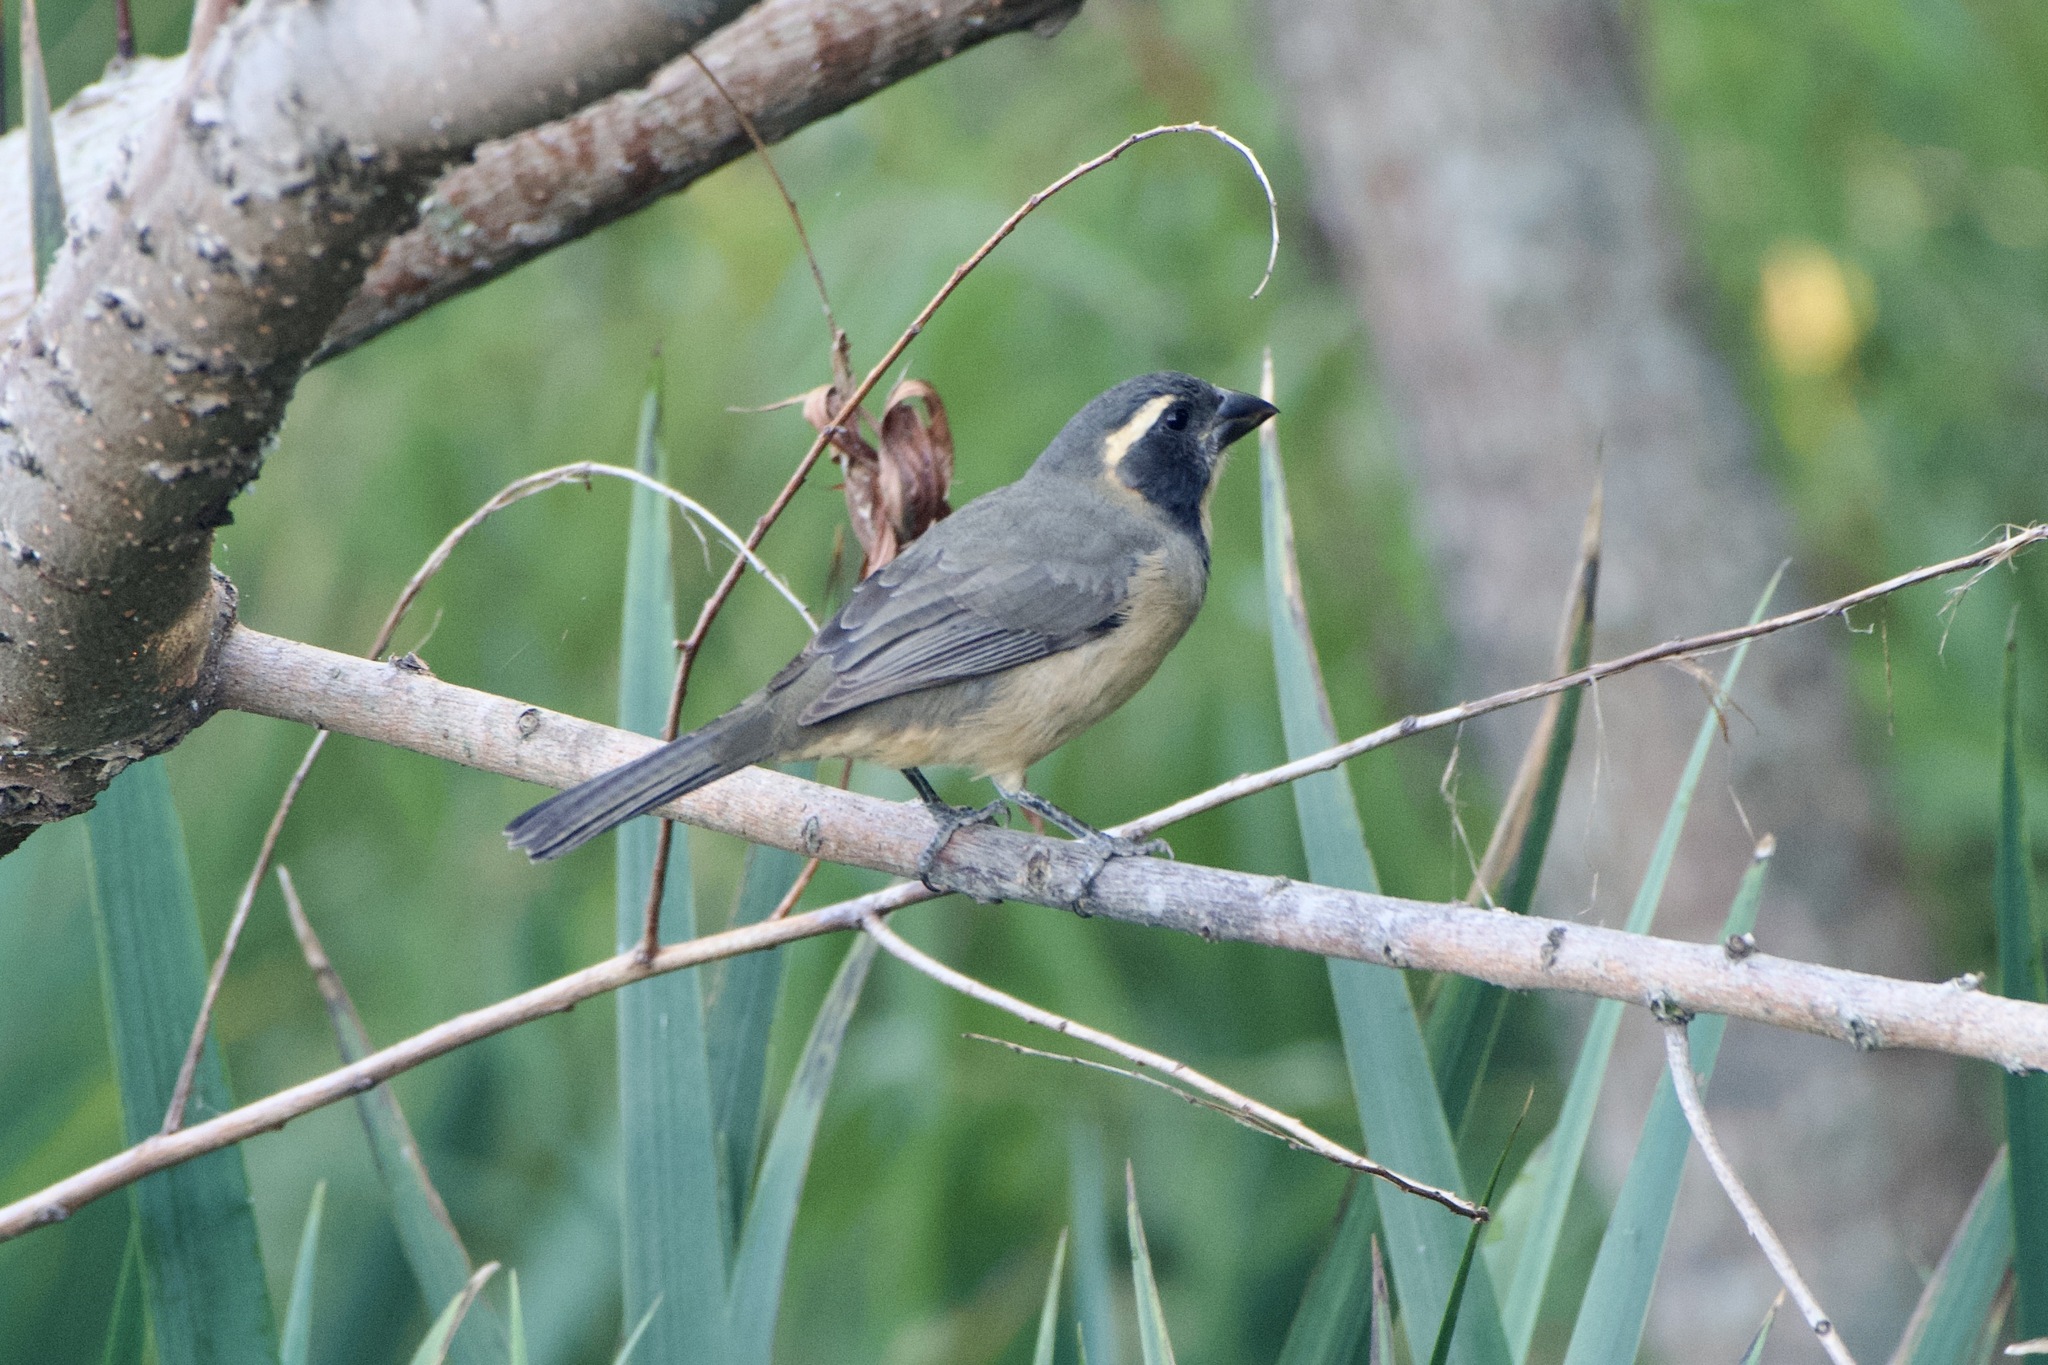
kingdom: Animalia
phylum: Chordata
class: Aves
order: Passeriformes
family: Thraupidae
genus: Saltator
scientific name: Saltator aurantiirostris
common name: Golden-billed saltator
